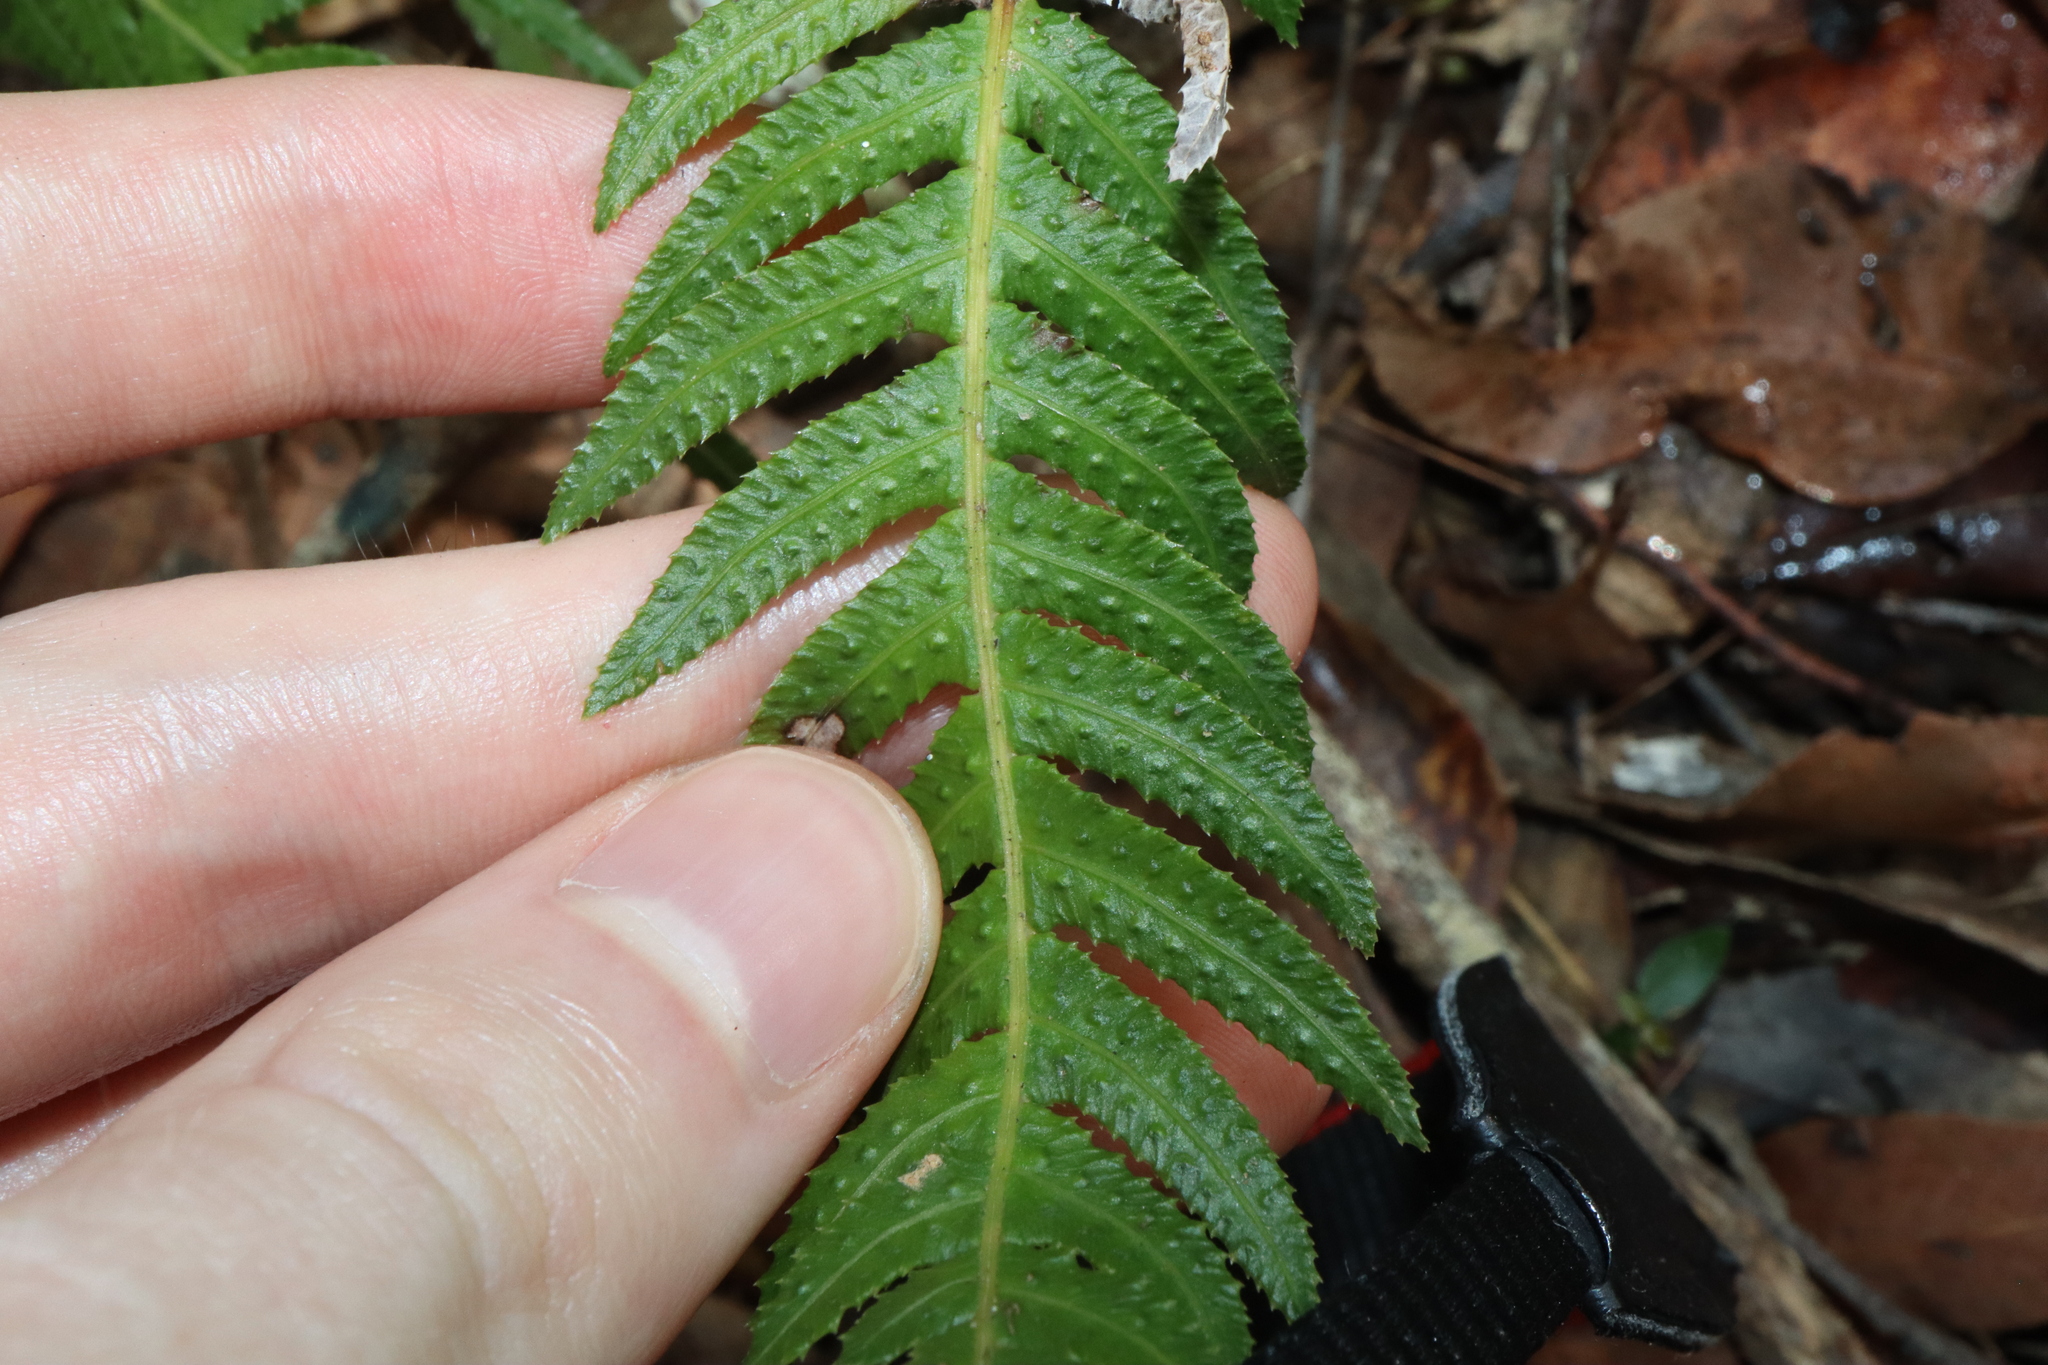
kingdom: Plantae
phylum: Tracheophyta
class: Polypodiopsida
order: Polypodiales
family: Blechnaceae
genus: Doodia
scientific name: Doodia aspera
